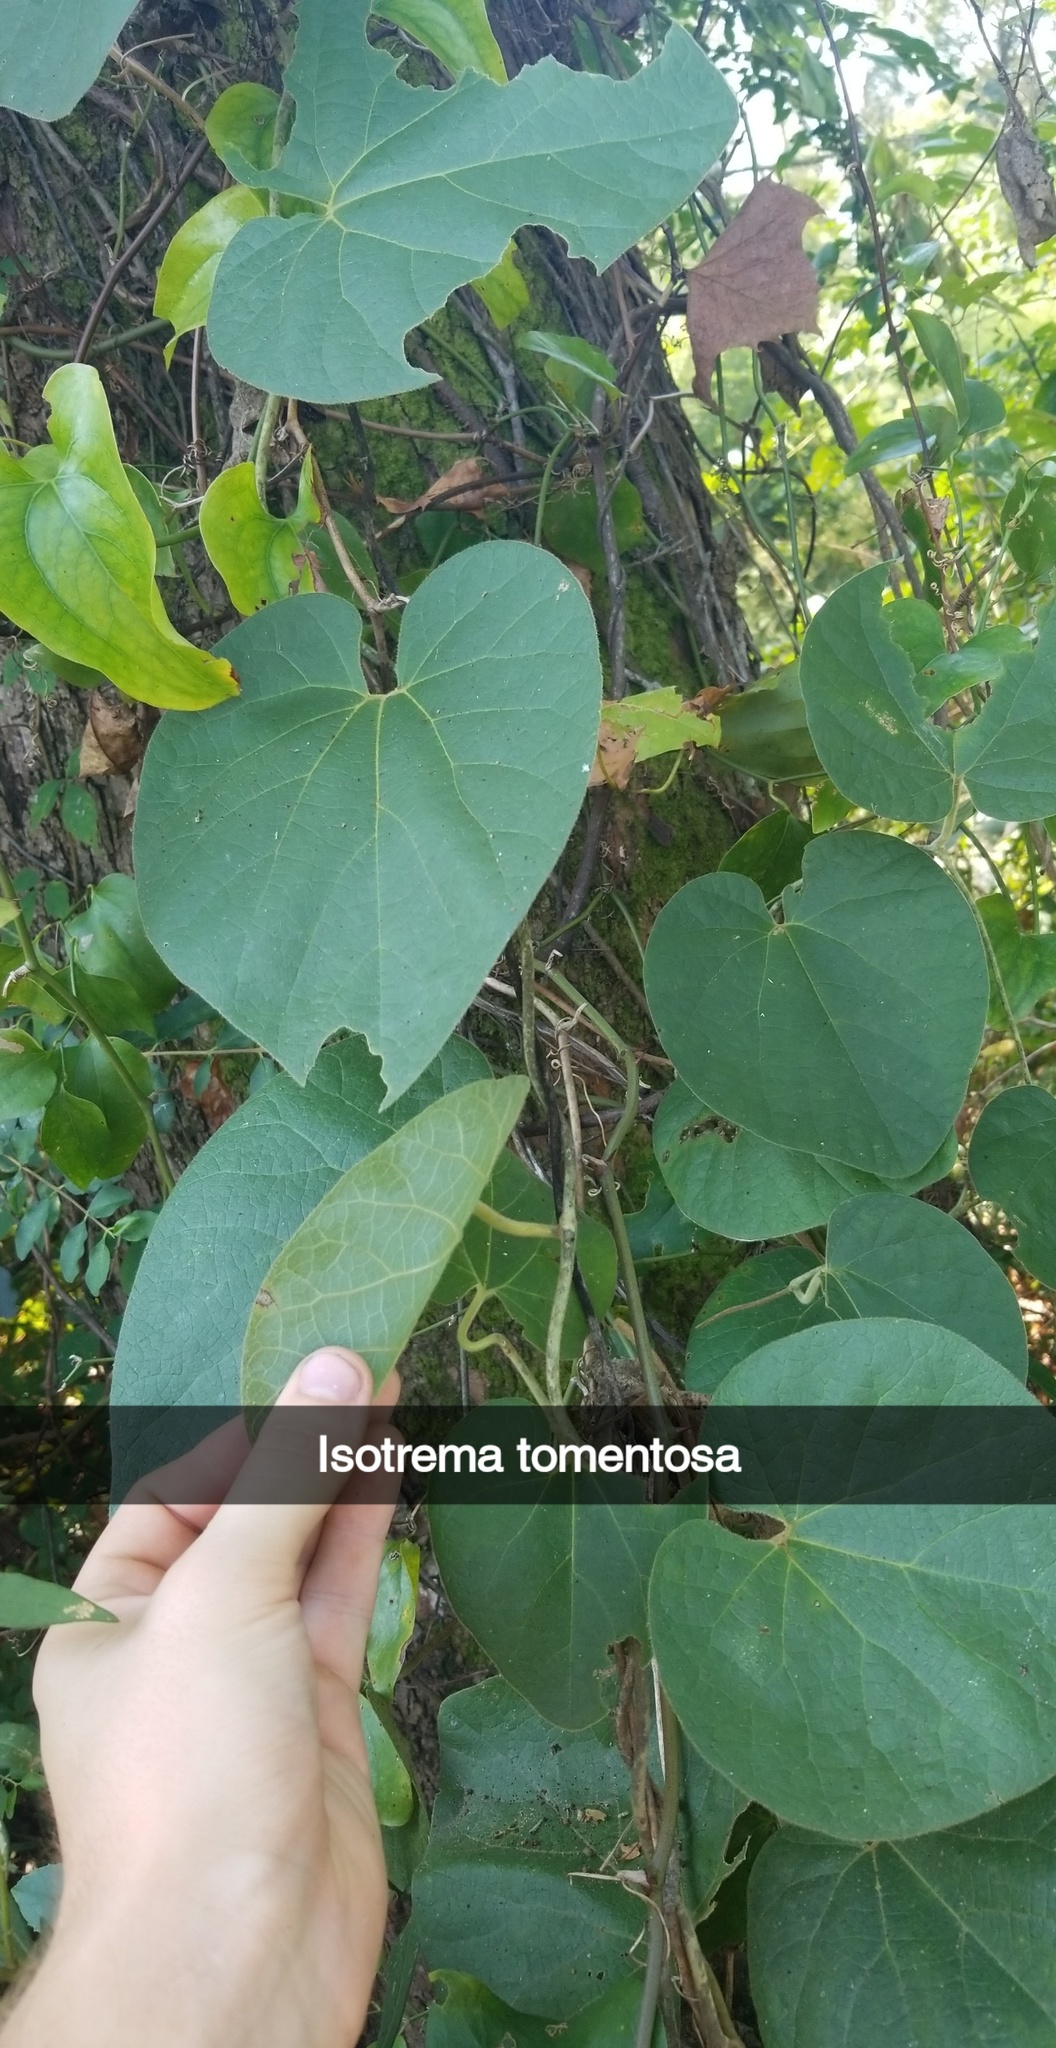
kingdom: Plantae
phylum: Tracheophyta
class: Magnoliopsida
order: Piperales
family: Aristolochiaceae
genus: Isotrema
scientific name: Isotrema tomentosum
